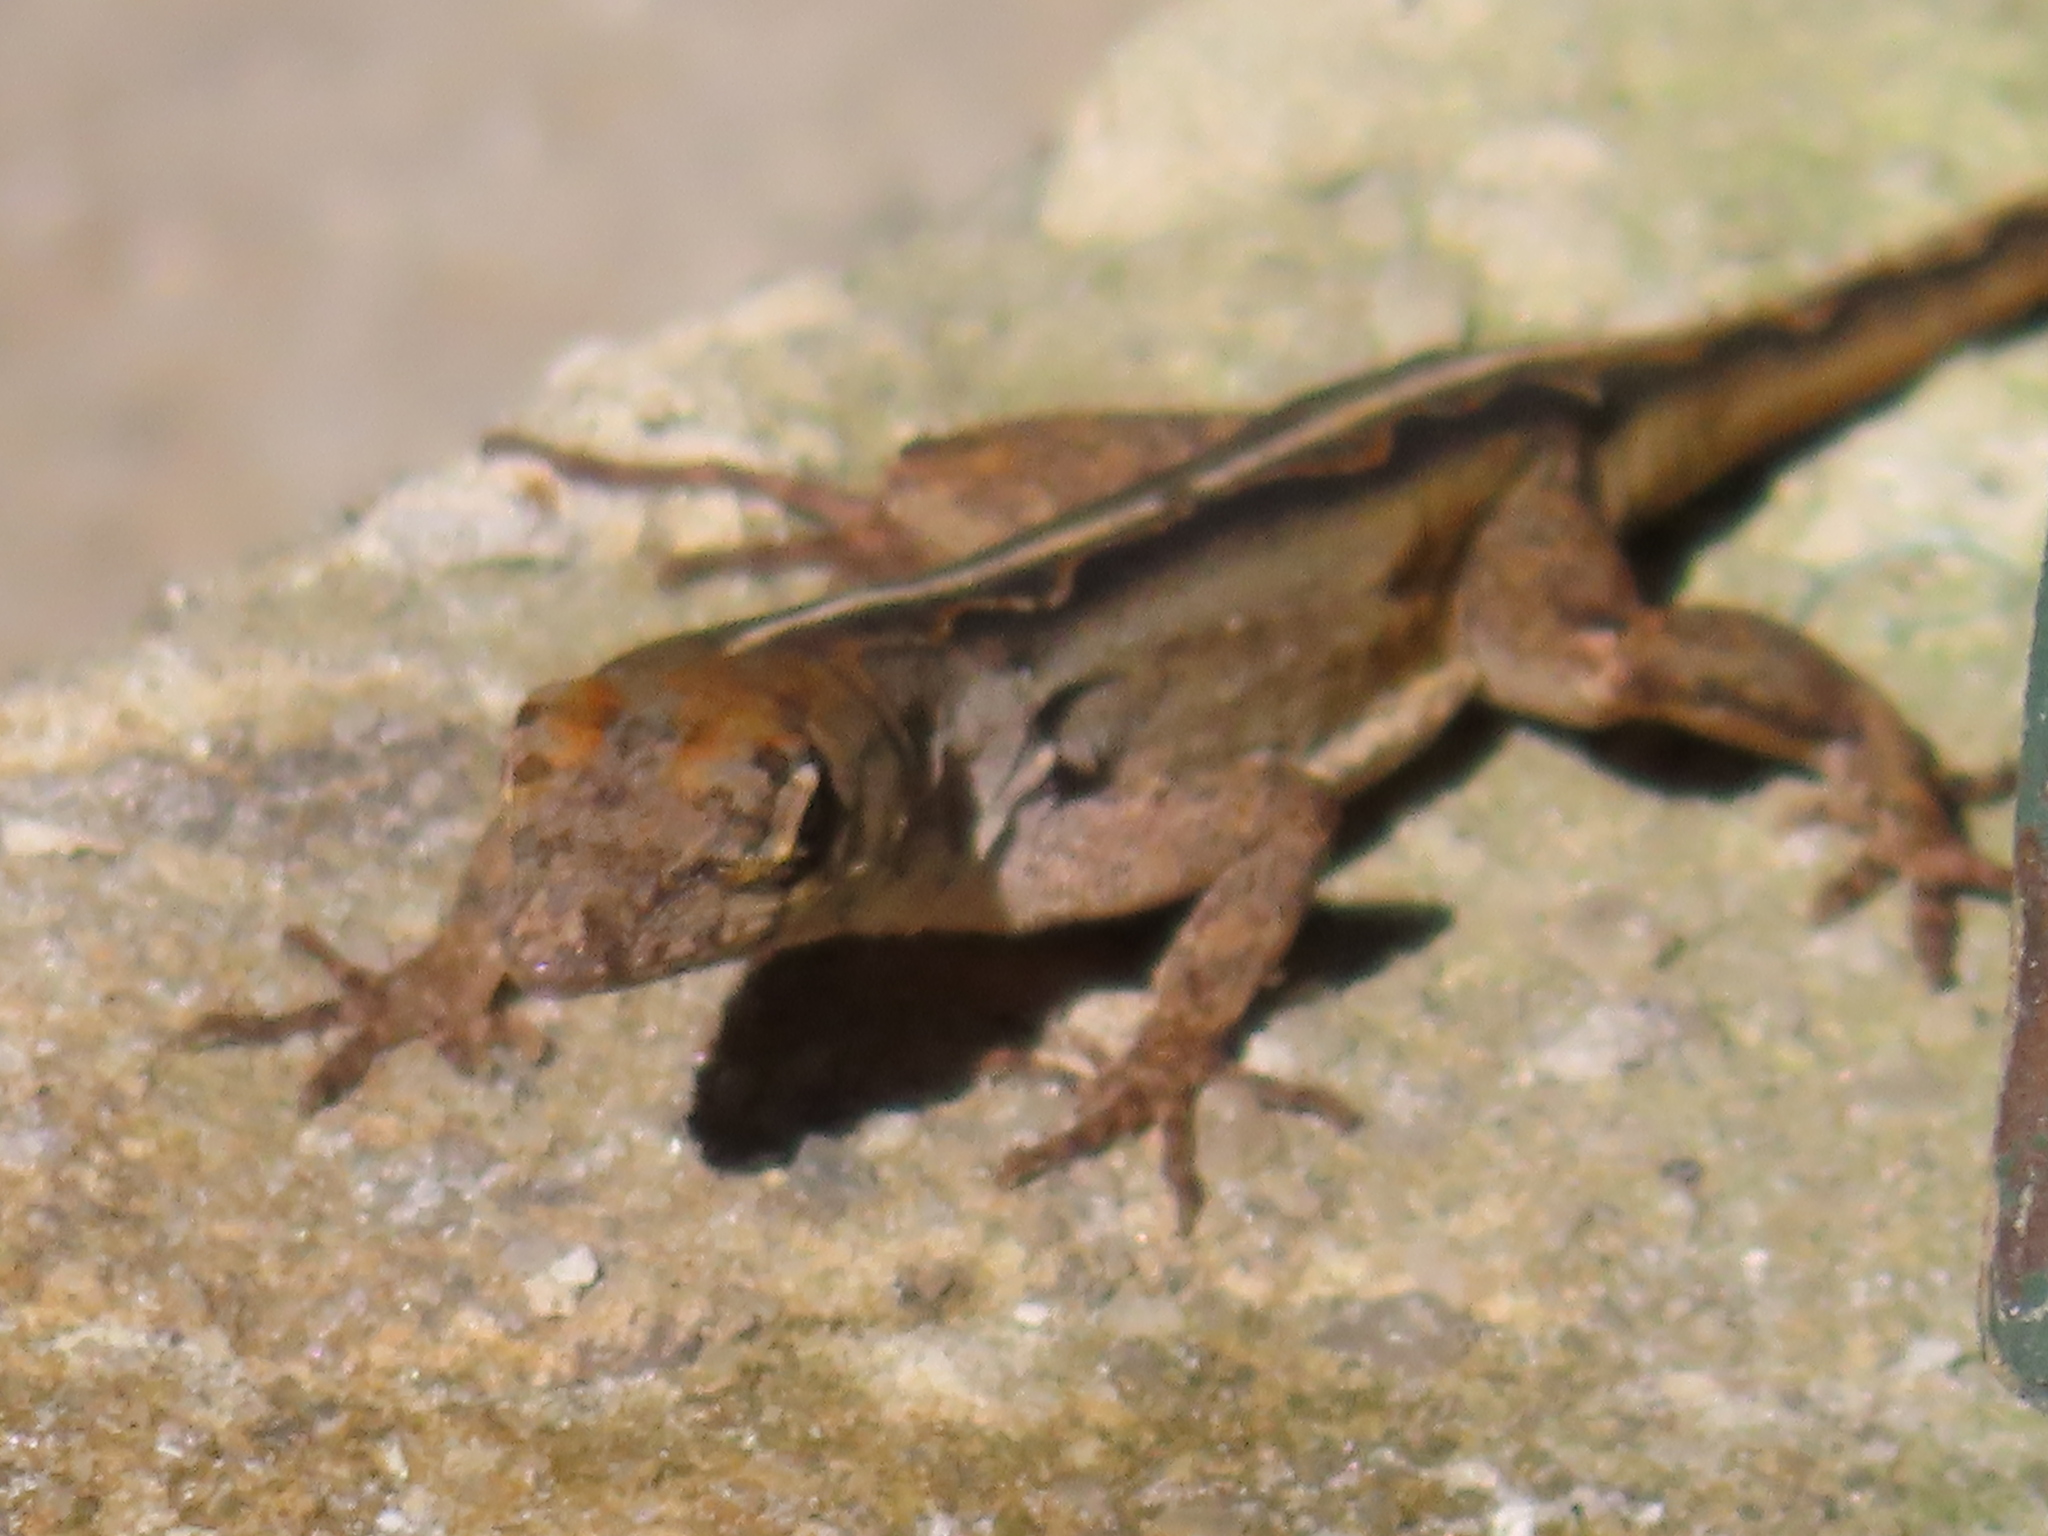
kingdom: Animalia
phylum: Chordata
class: Squamata
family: Dactyloidae
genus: Anolis
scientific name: Anolis sagrei
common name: Brown anole
